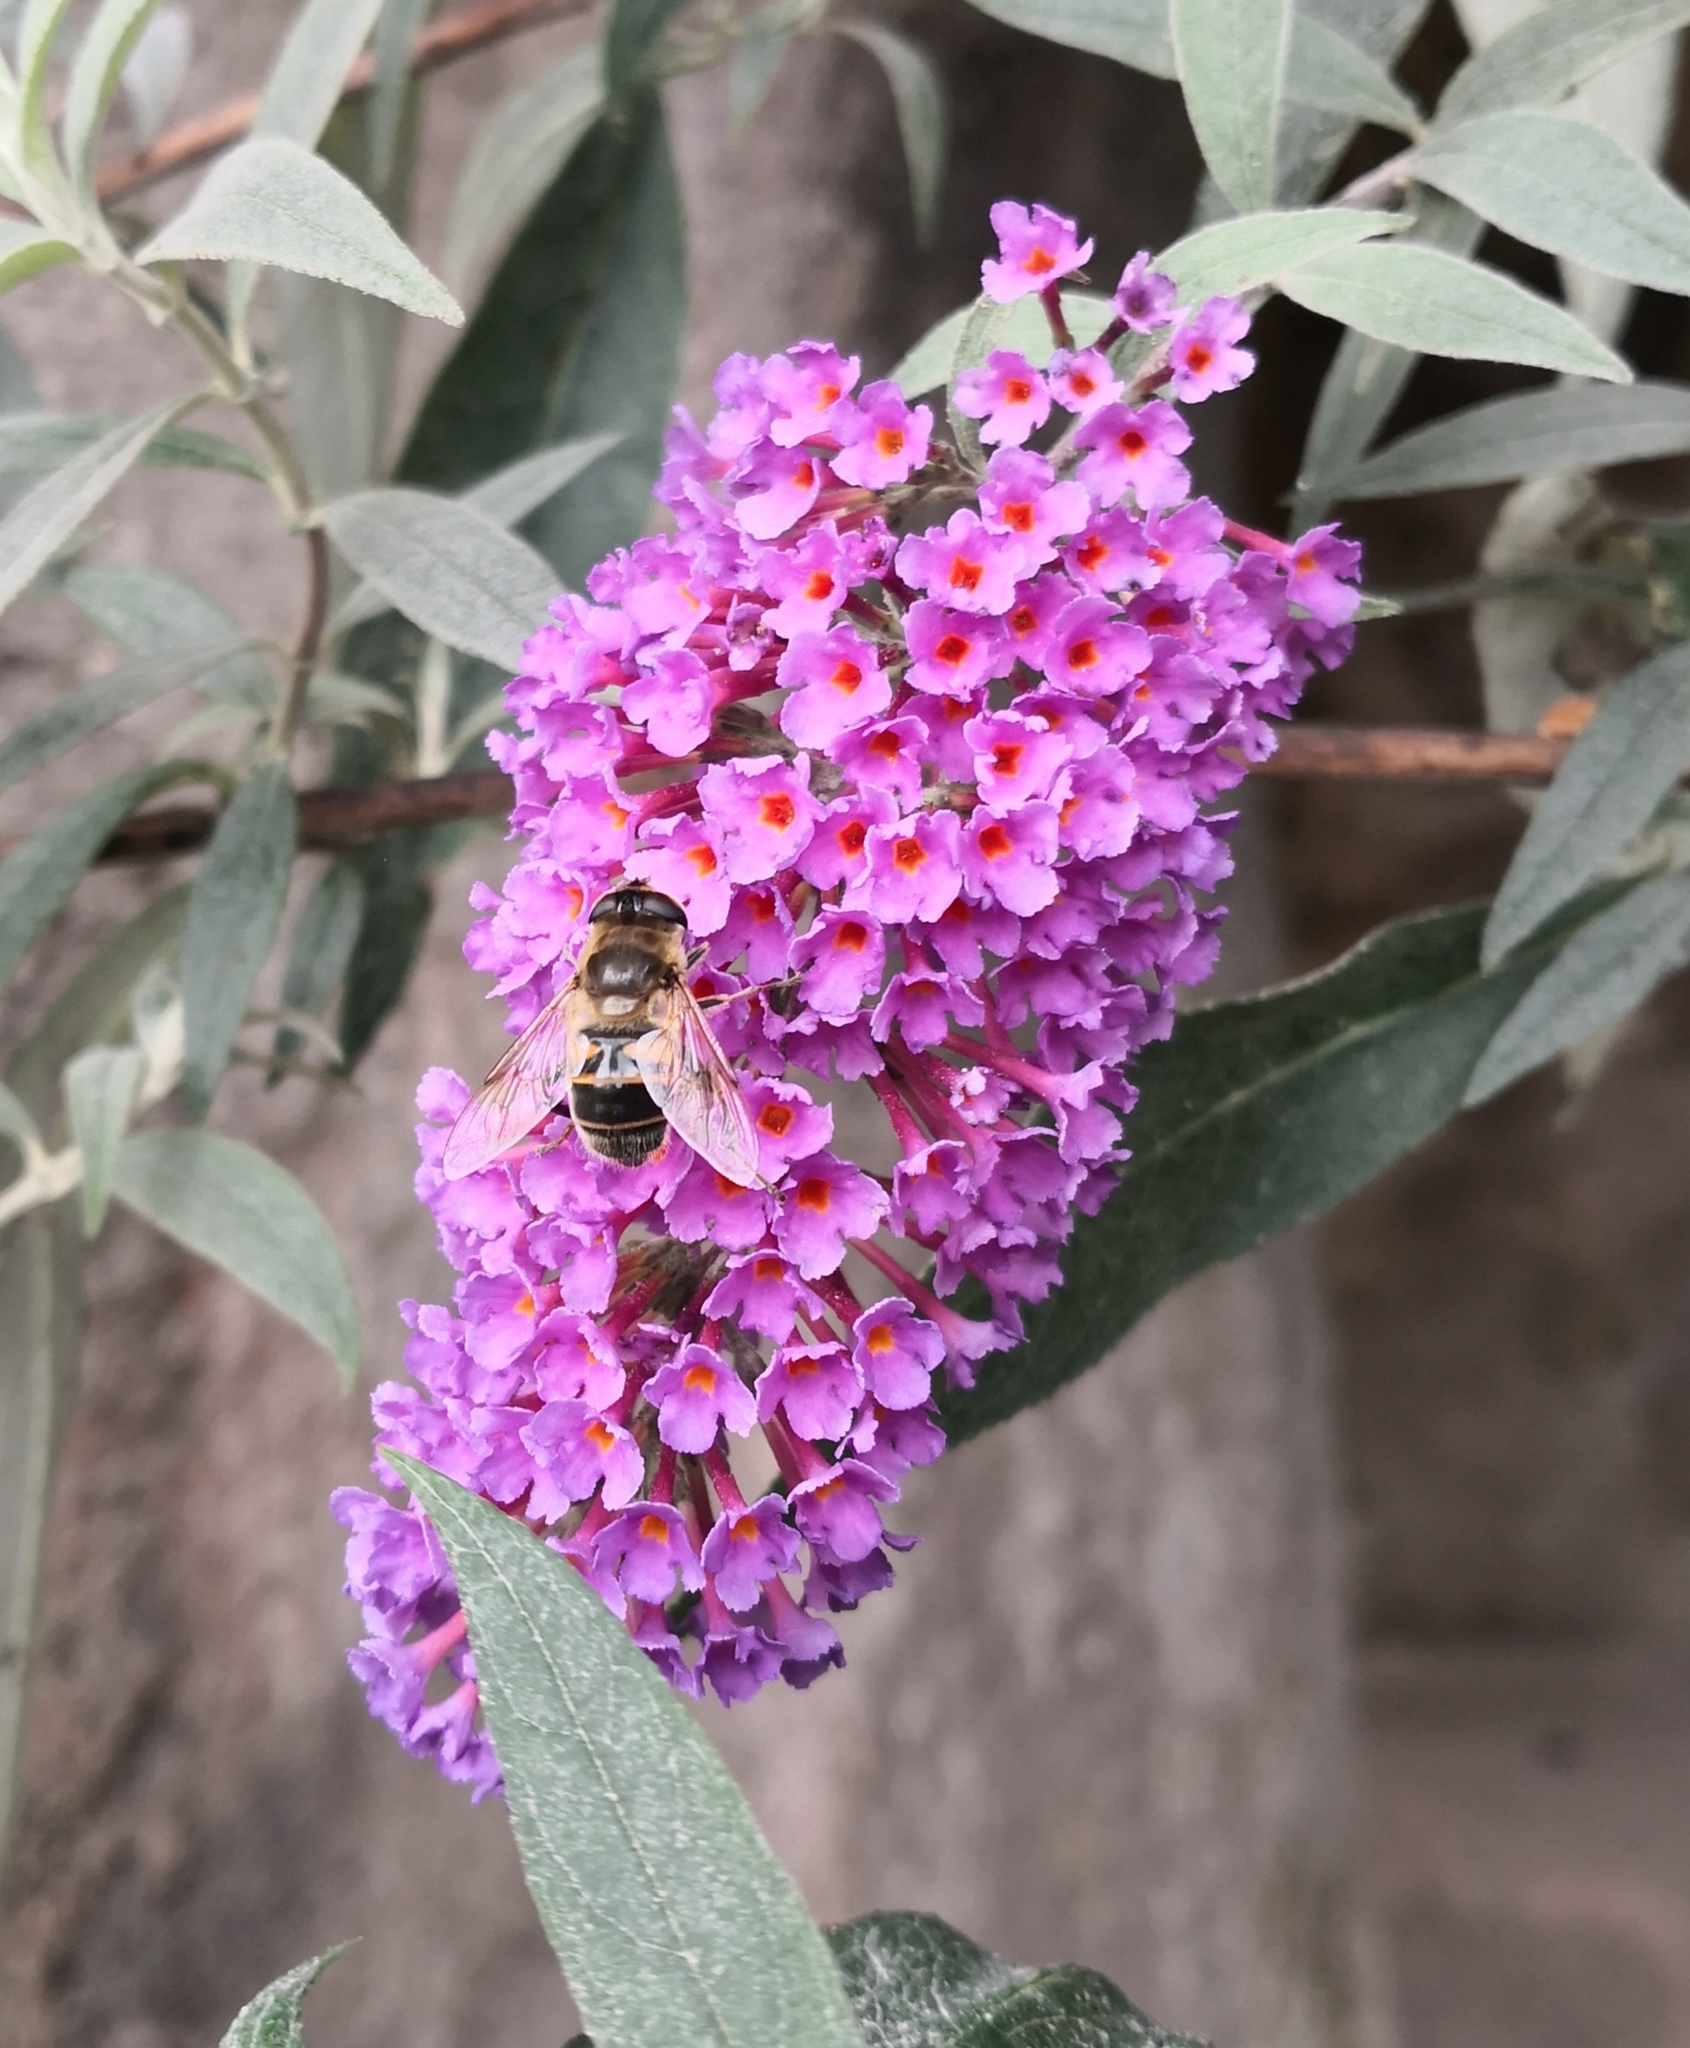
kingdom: Animalia
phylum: Arthropoda
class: Insecta
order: Diptera
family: Syrphidae
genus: Eristalis
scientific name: Eristalis tenax
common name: Drone fly
